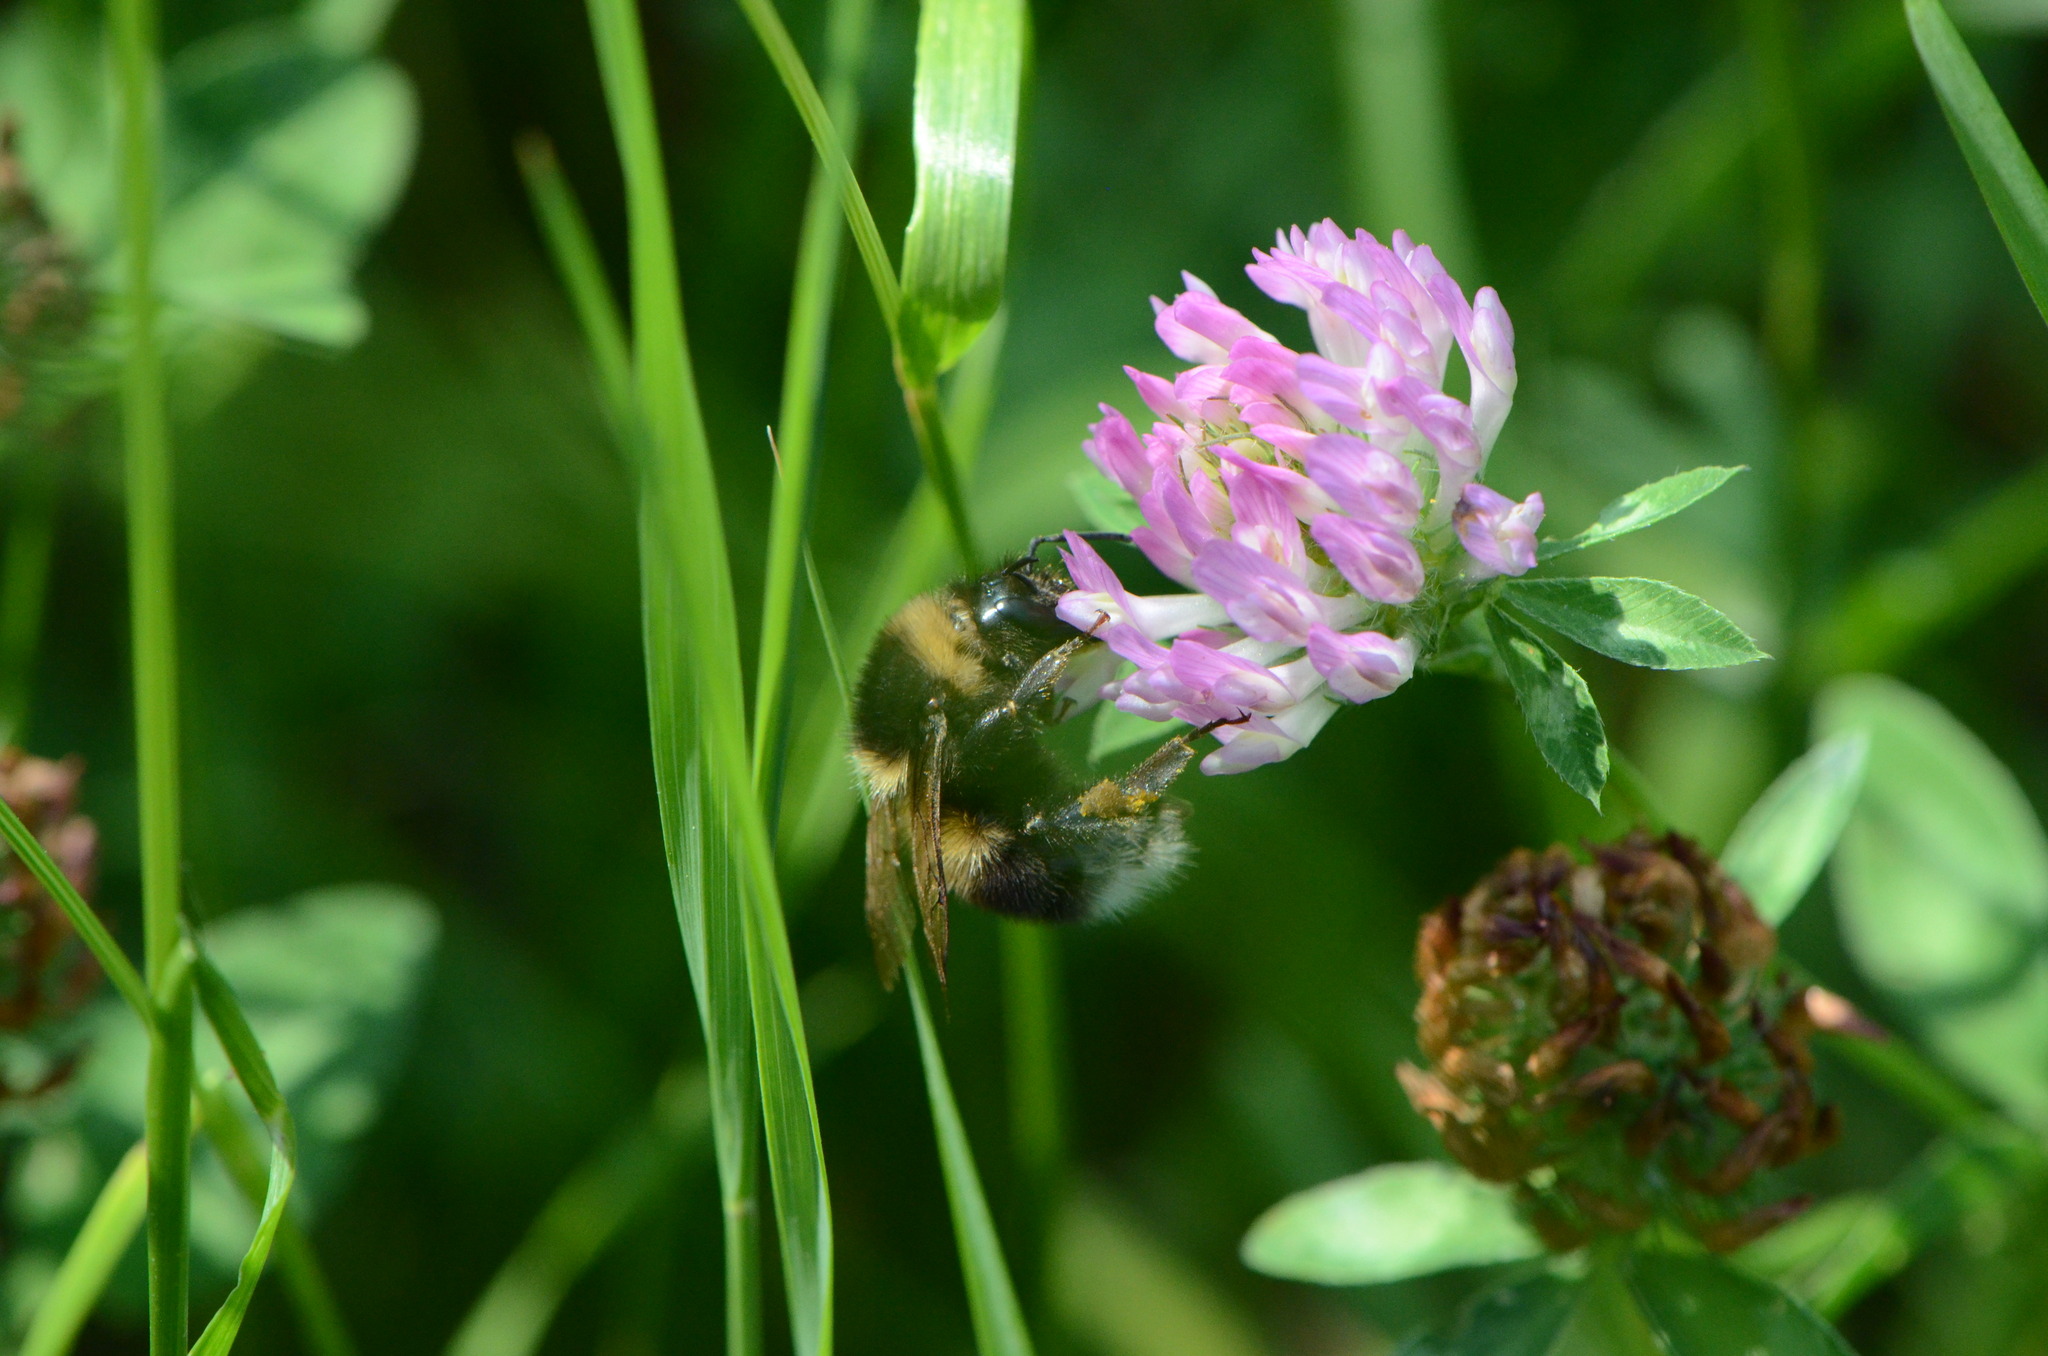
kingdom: Animalia
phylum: Arthropoda
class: Insecta
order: Hymenoptera
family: Apidae
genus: Bombus
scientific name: Bombus hortorum
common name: Garden bumblebee
